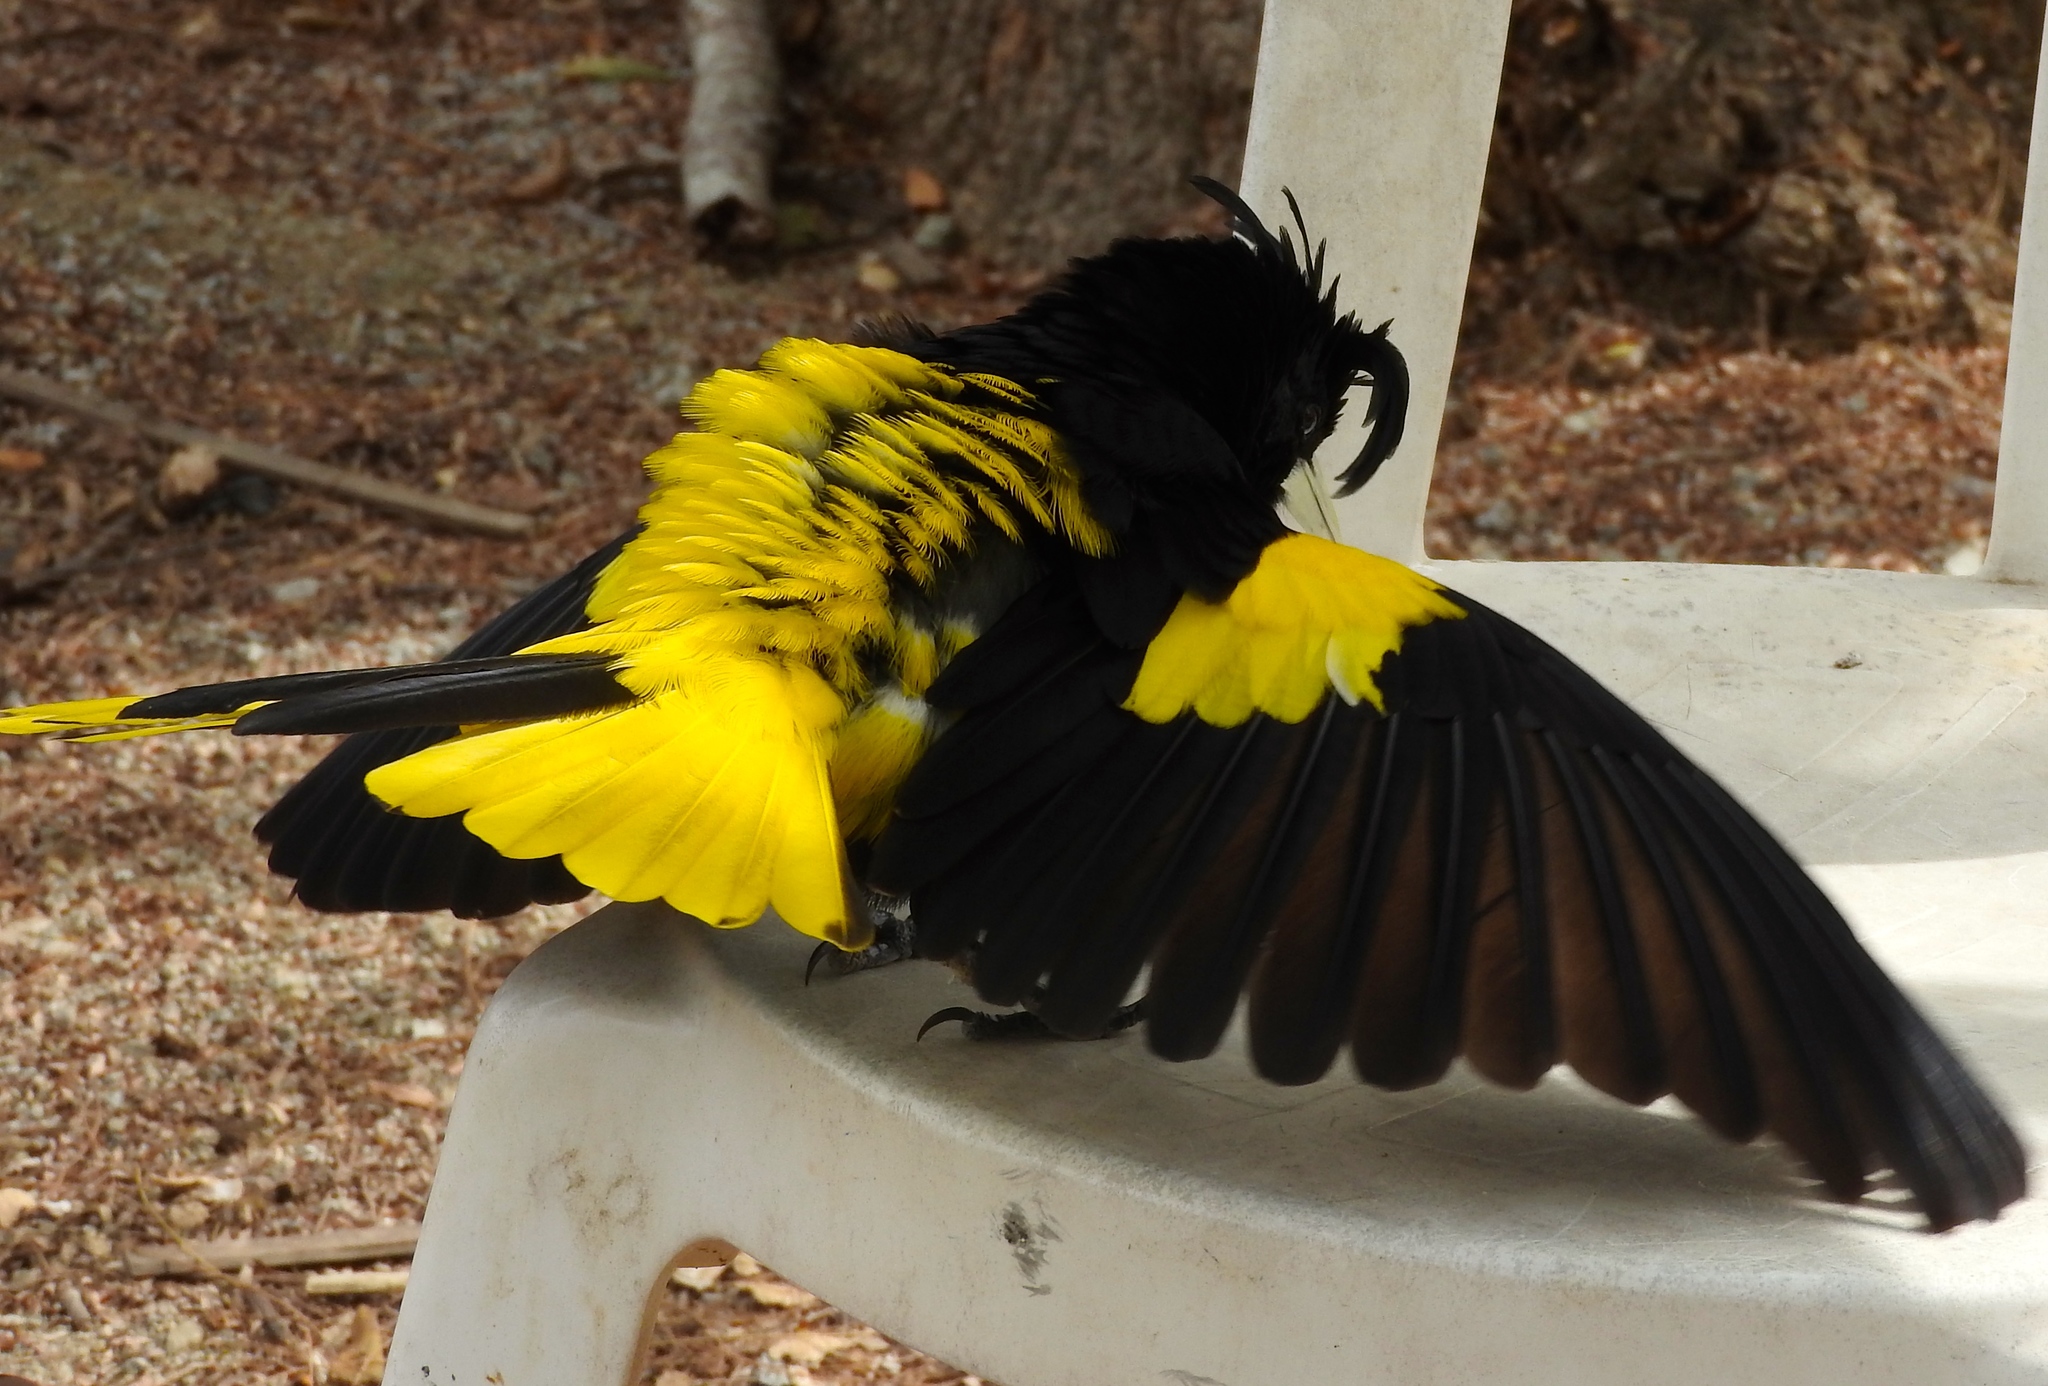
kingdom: Animalia
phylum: Chordata
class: Aves
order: Passeriformes
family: Icteridae
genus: Cacicus
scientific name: Cacicus melanicterus
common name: Yellow-winged cacique
